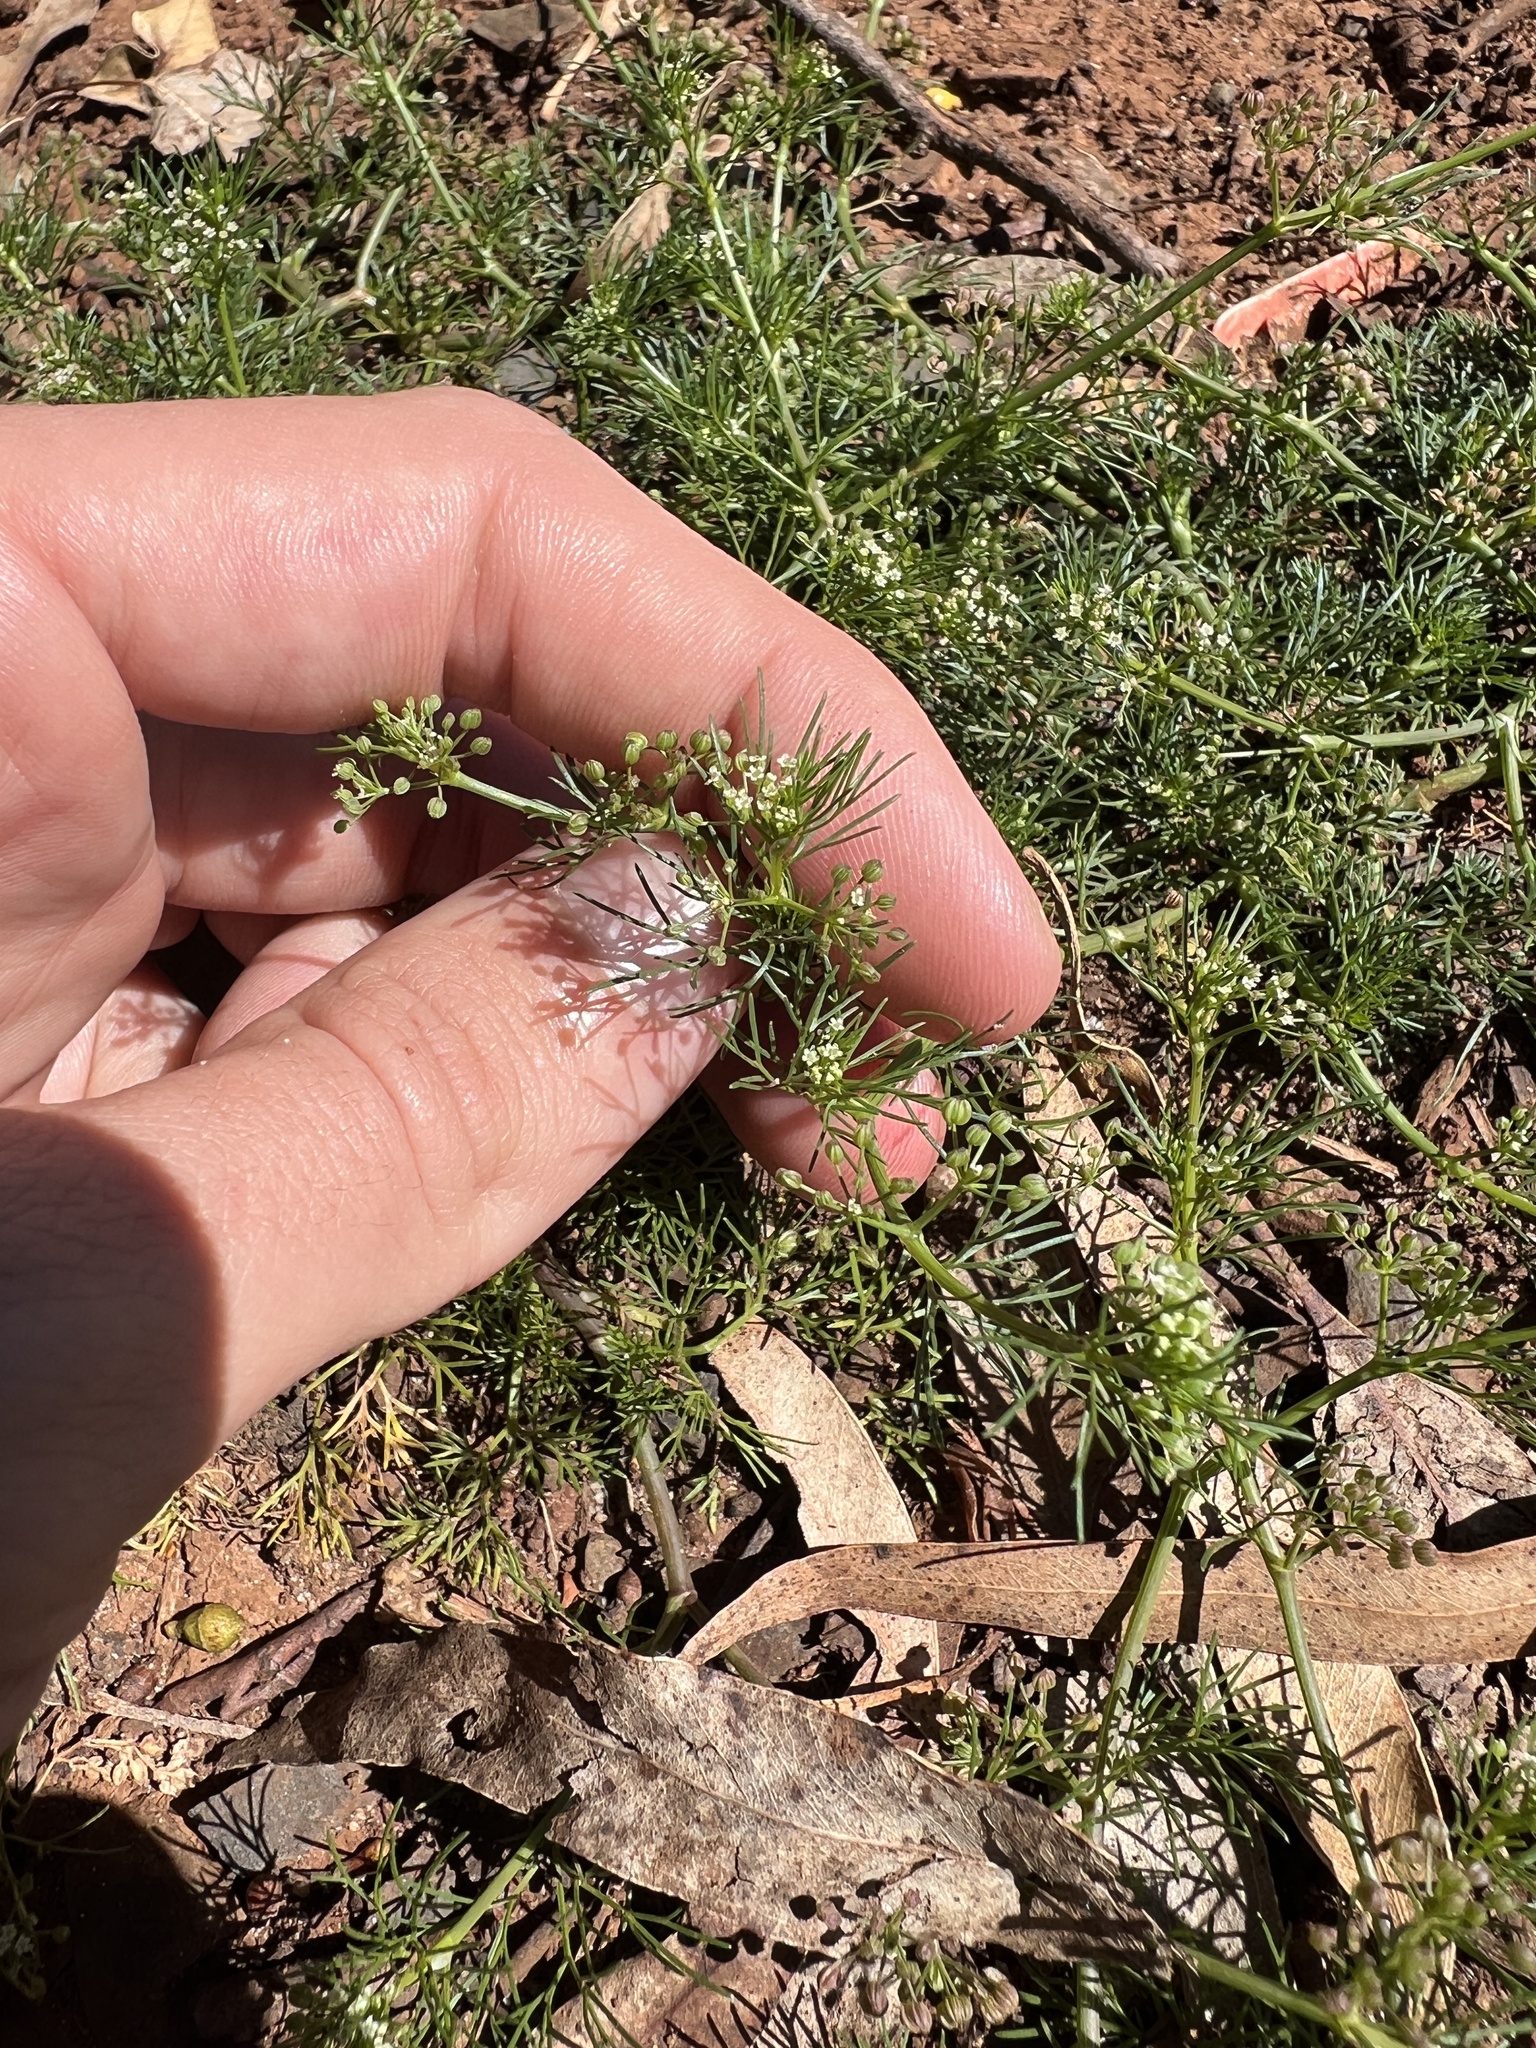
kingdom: Plantae
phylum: Tracheophyta
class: Magnoliopsida
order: Apiales
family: Apiaceae
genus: Cyclospermum
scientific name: Cyclospermum leptophyllum
